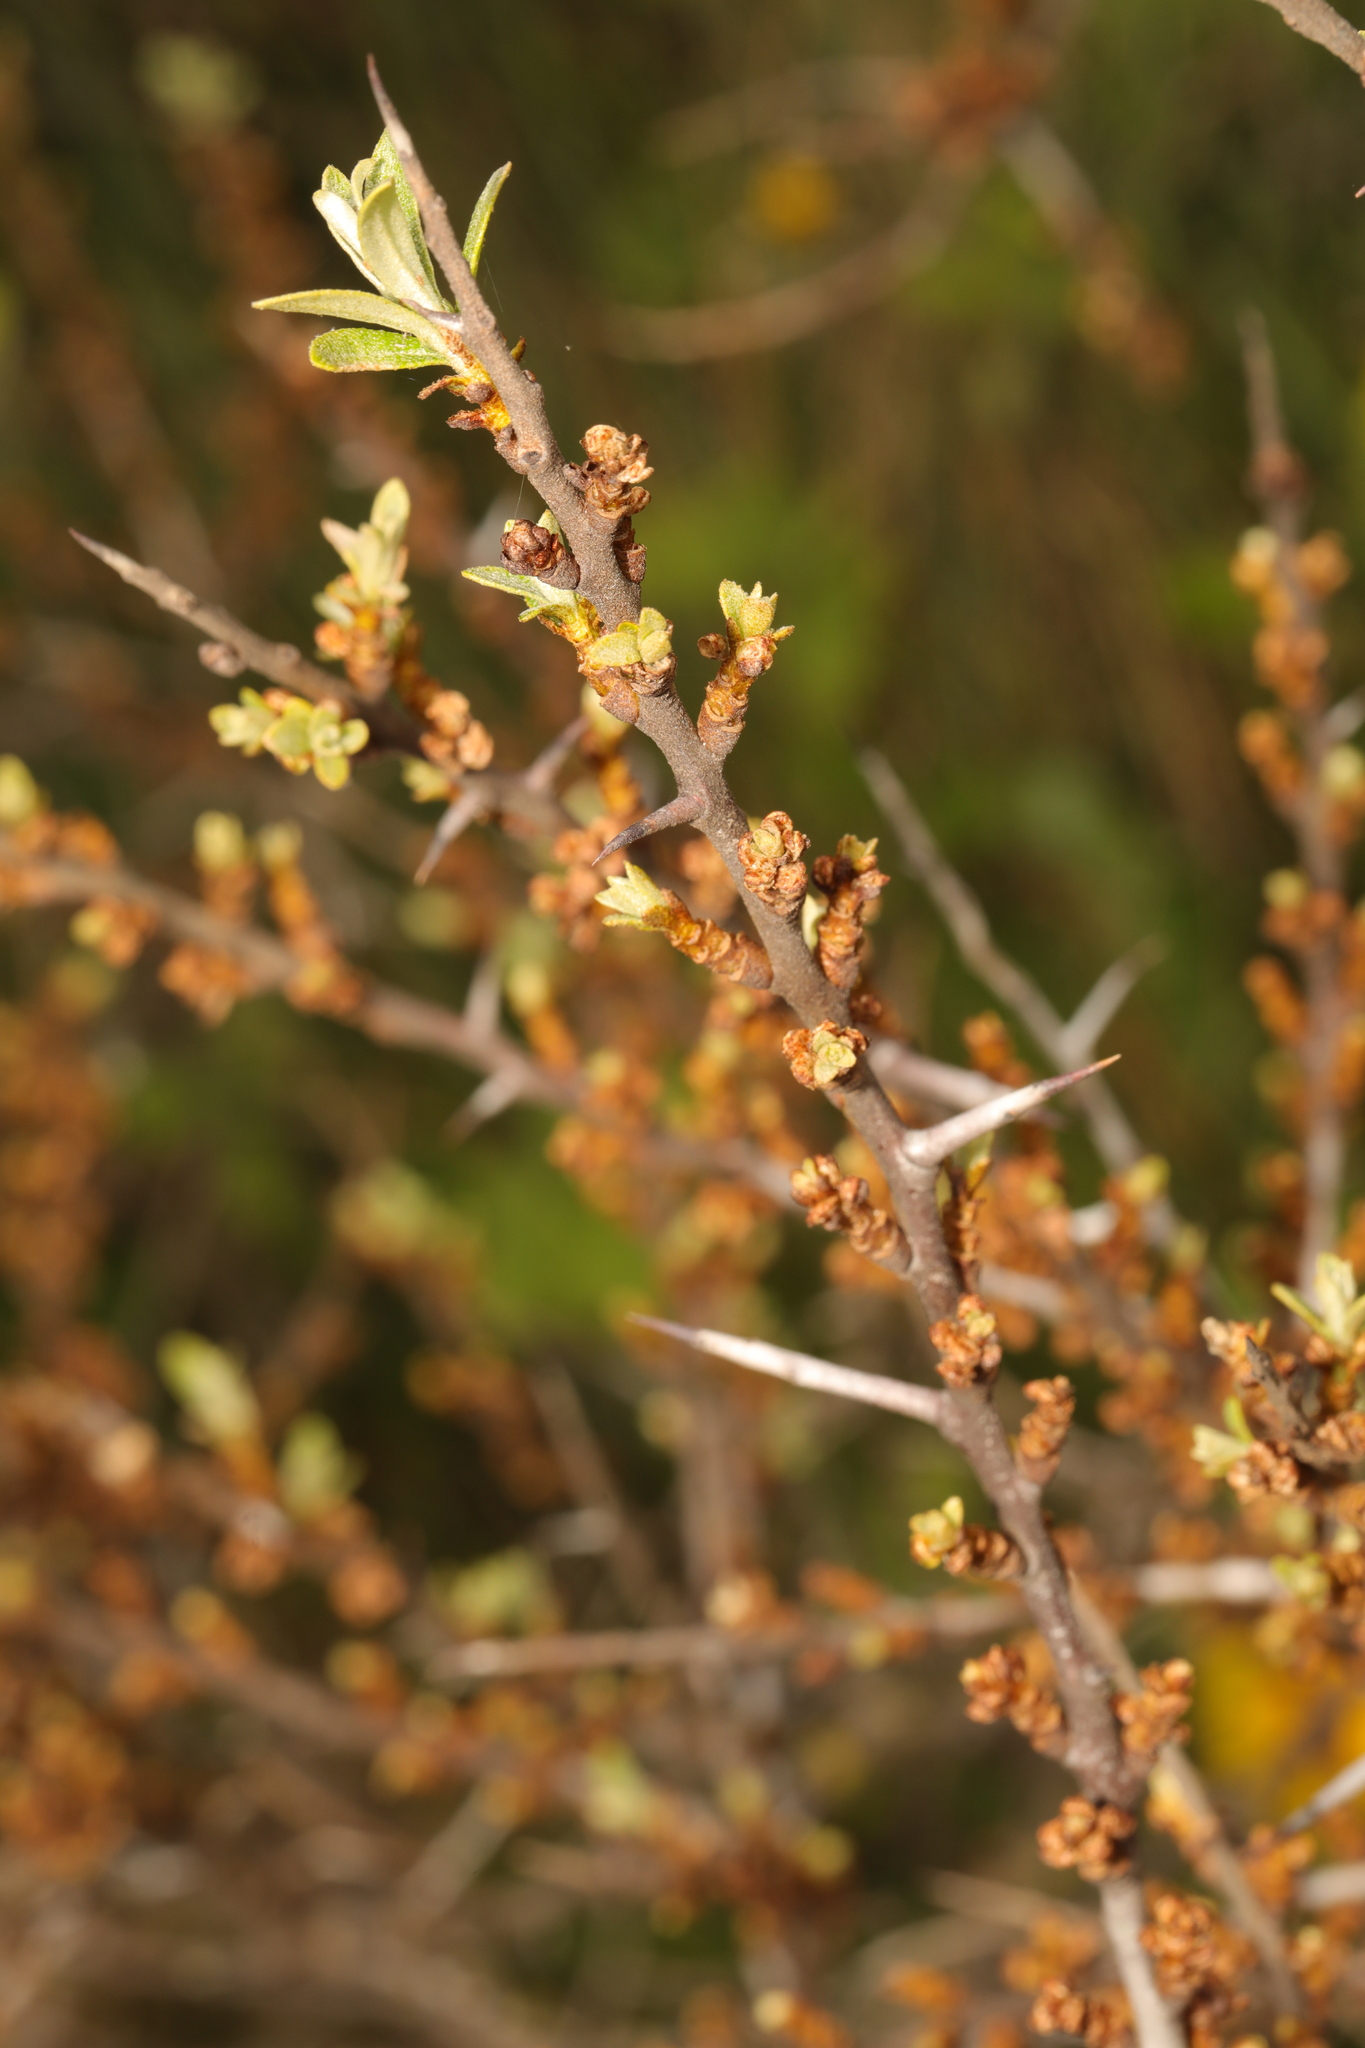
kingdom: Plantae
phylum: Tracheophyta
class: Magnoliopsida
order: Rosales
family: Elaeagnaceae
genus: Hippophae
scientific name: Hippophae rhamnoides
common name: Sea-buckthorn
